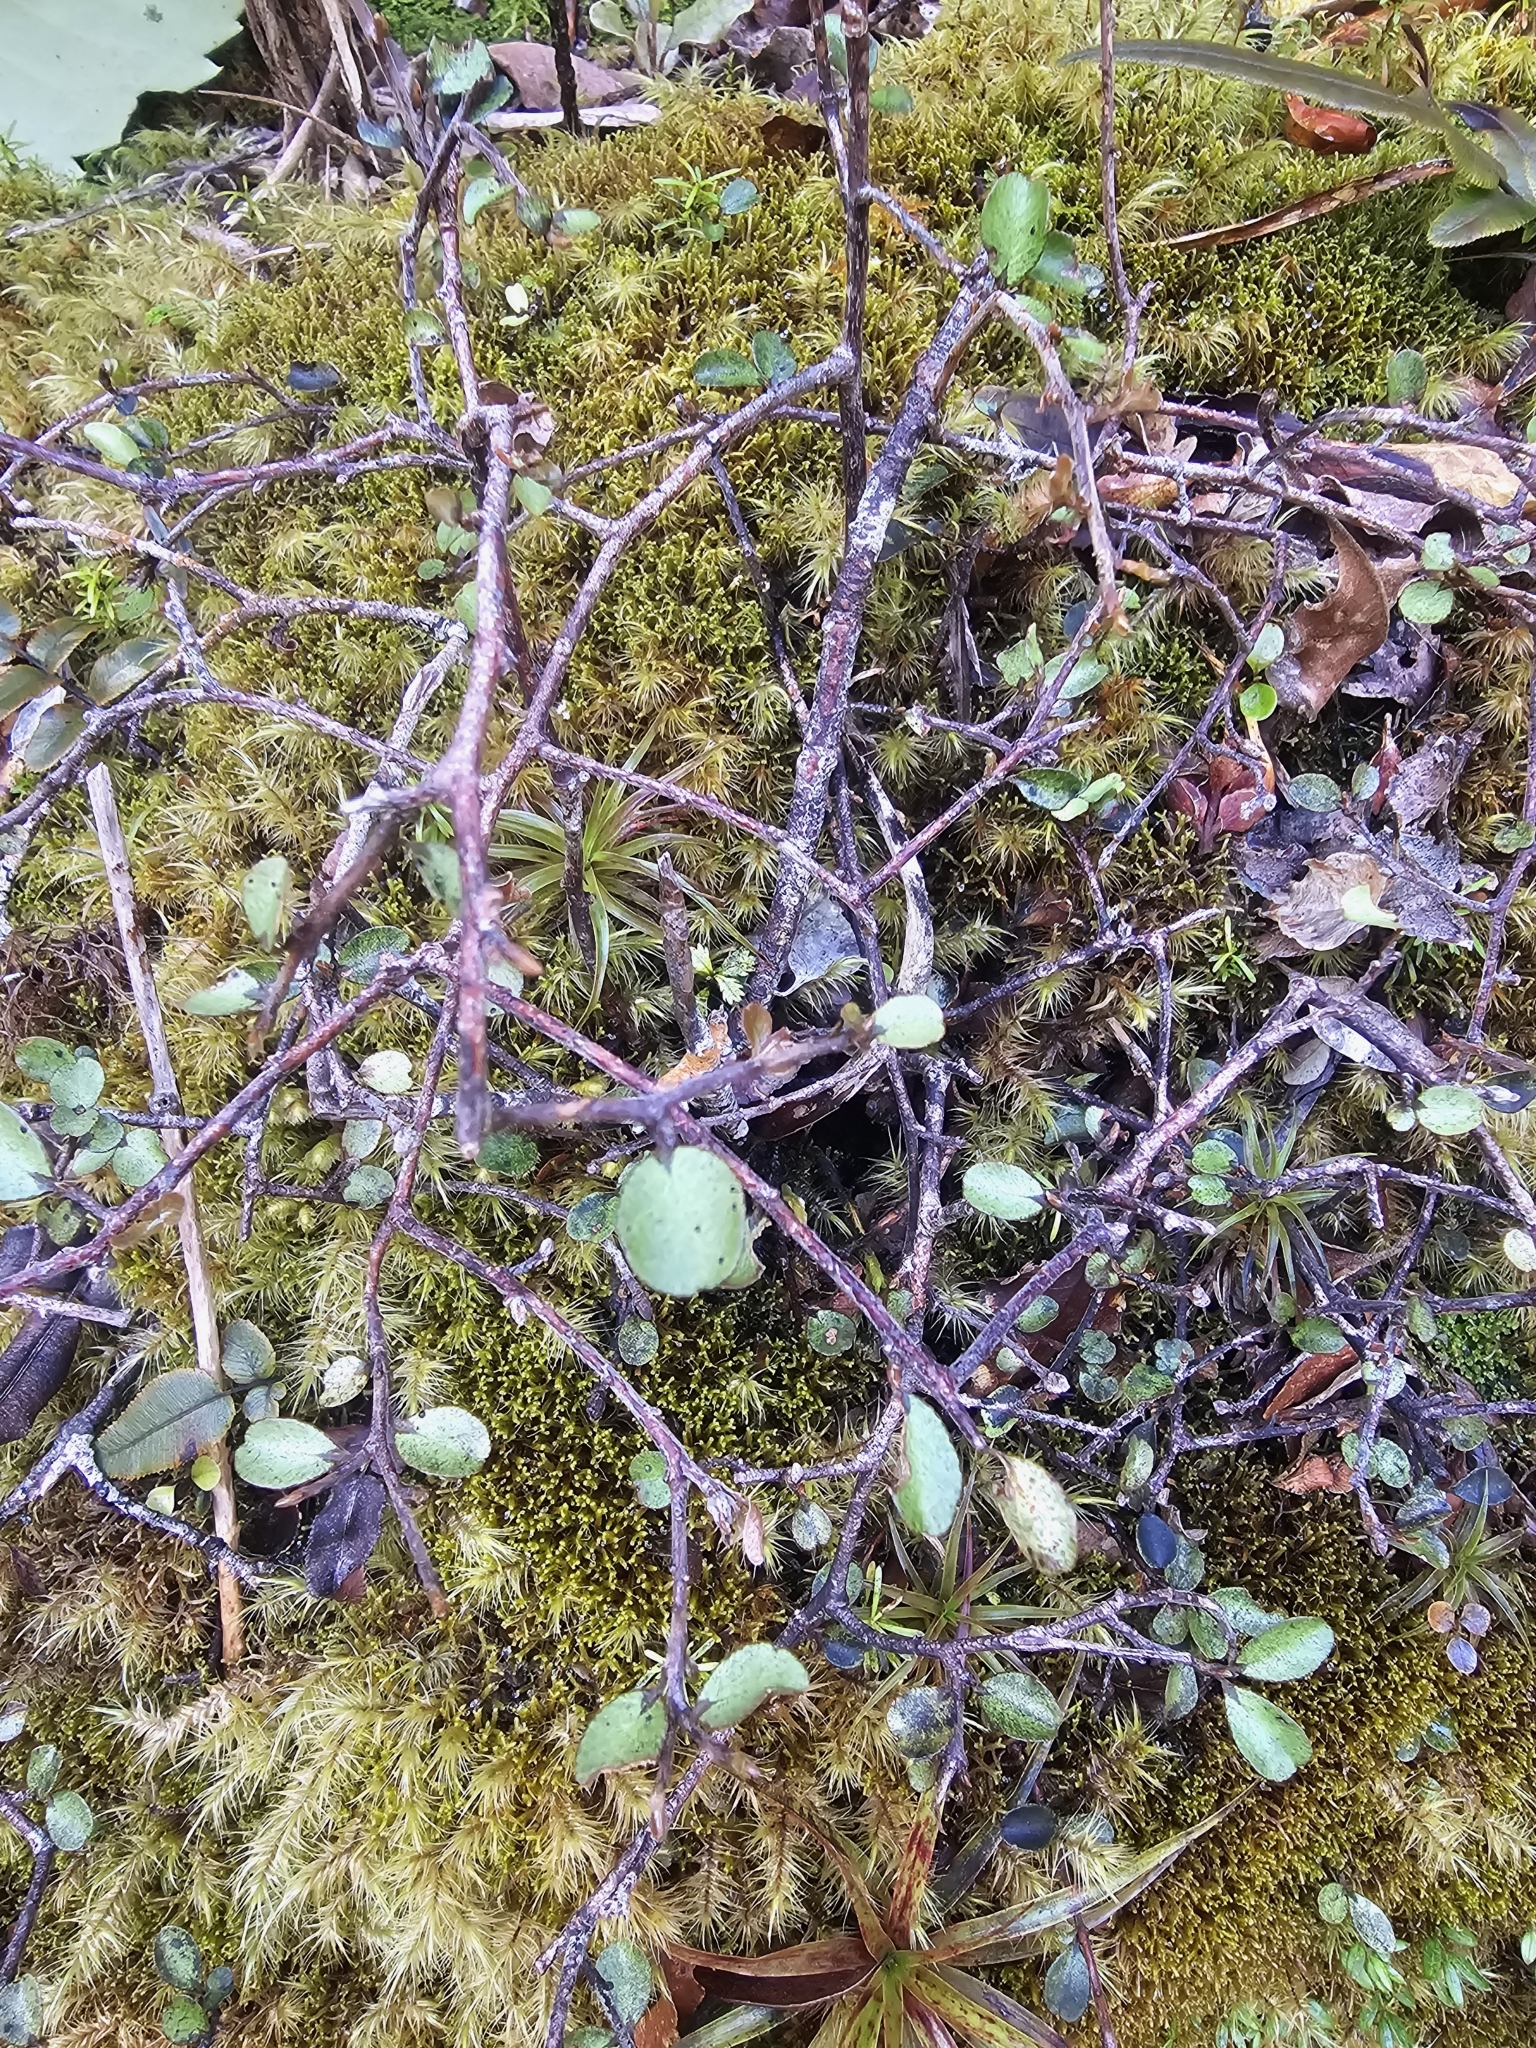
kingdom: Plantae
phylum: Tracheophyta
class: Magnoliopsida
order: Ericales
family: Primulaceae
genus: Myrsine
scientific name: Myrsine divaricata
